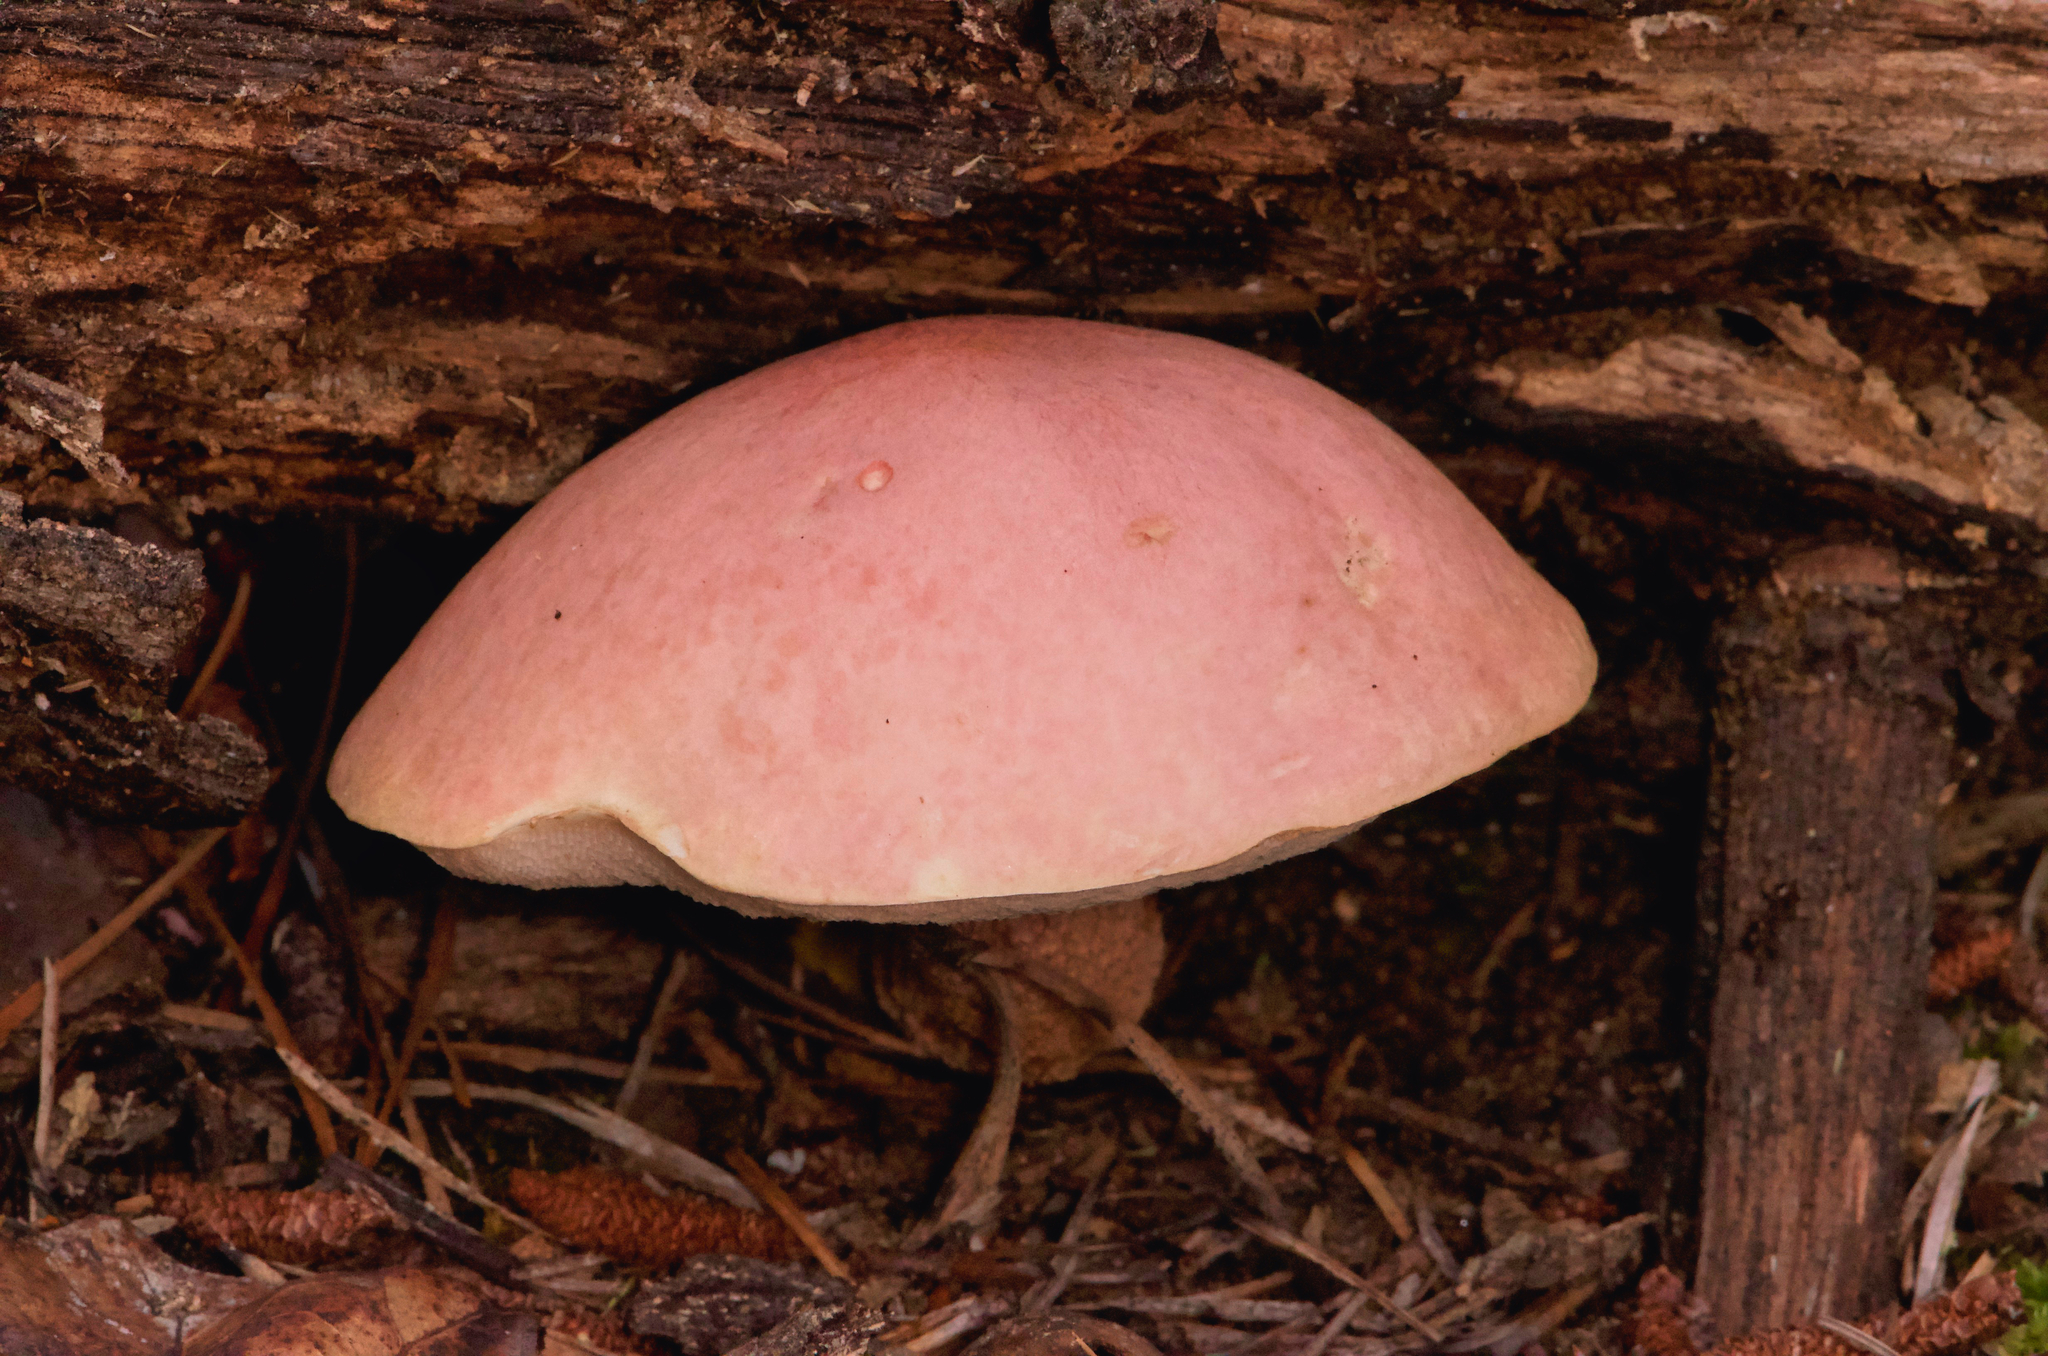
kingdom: Fungi
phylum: Basidiomycota
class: Agaricomycetes
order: Boletales
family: Boletaceae
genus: Harrya
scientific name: Harrya chromipes
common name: Chrome-footed bolete
